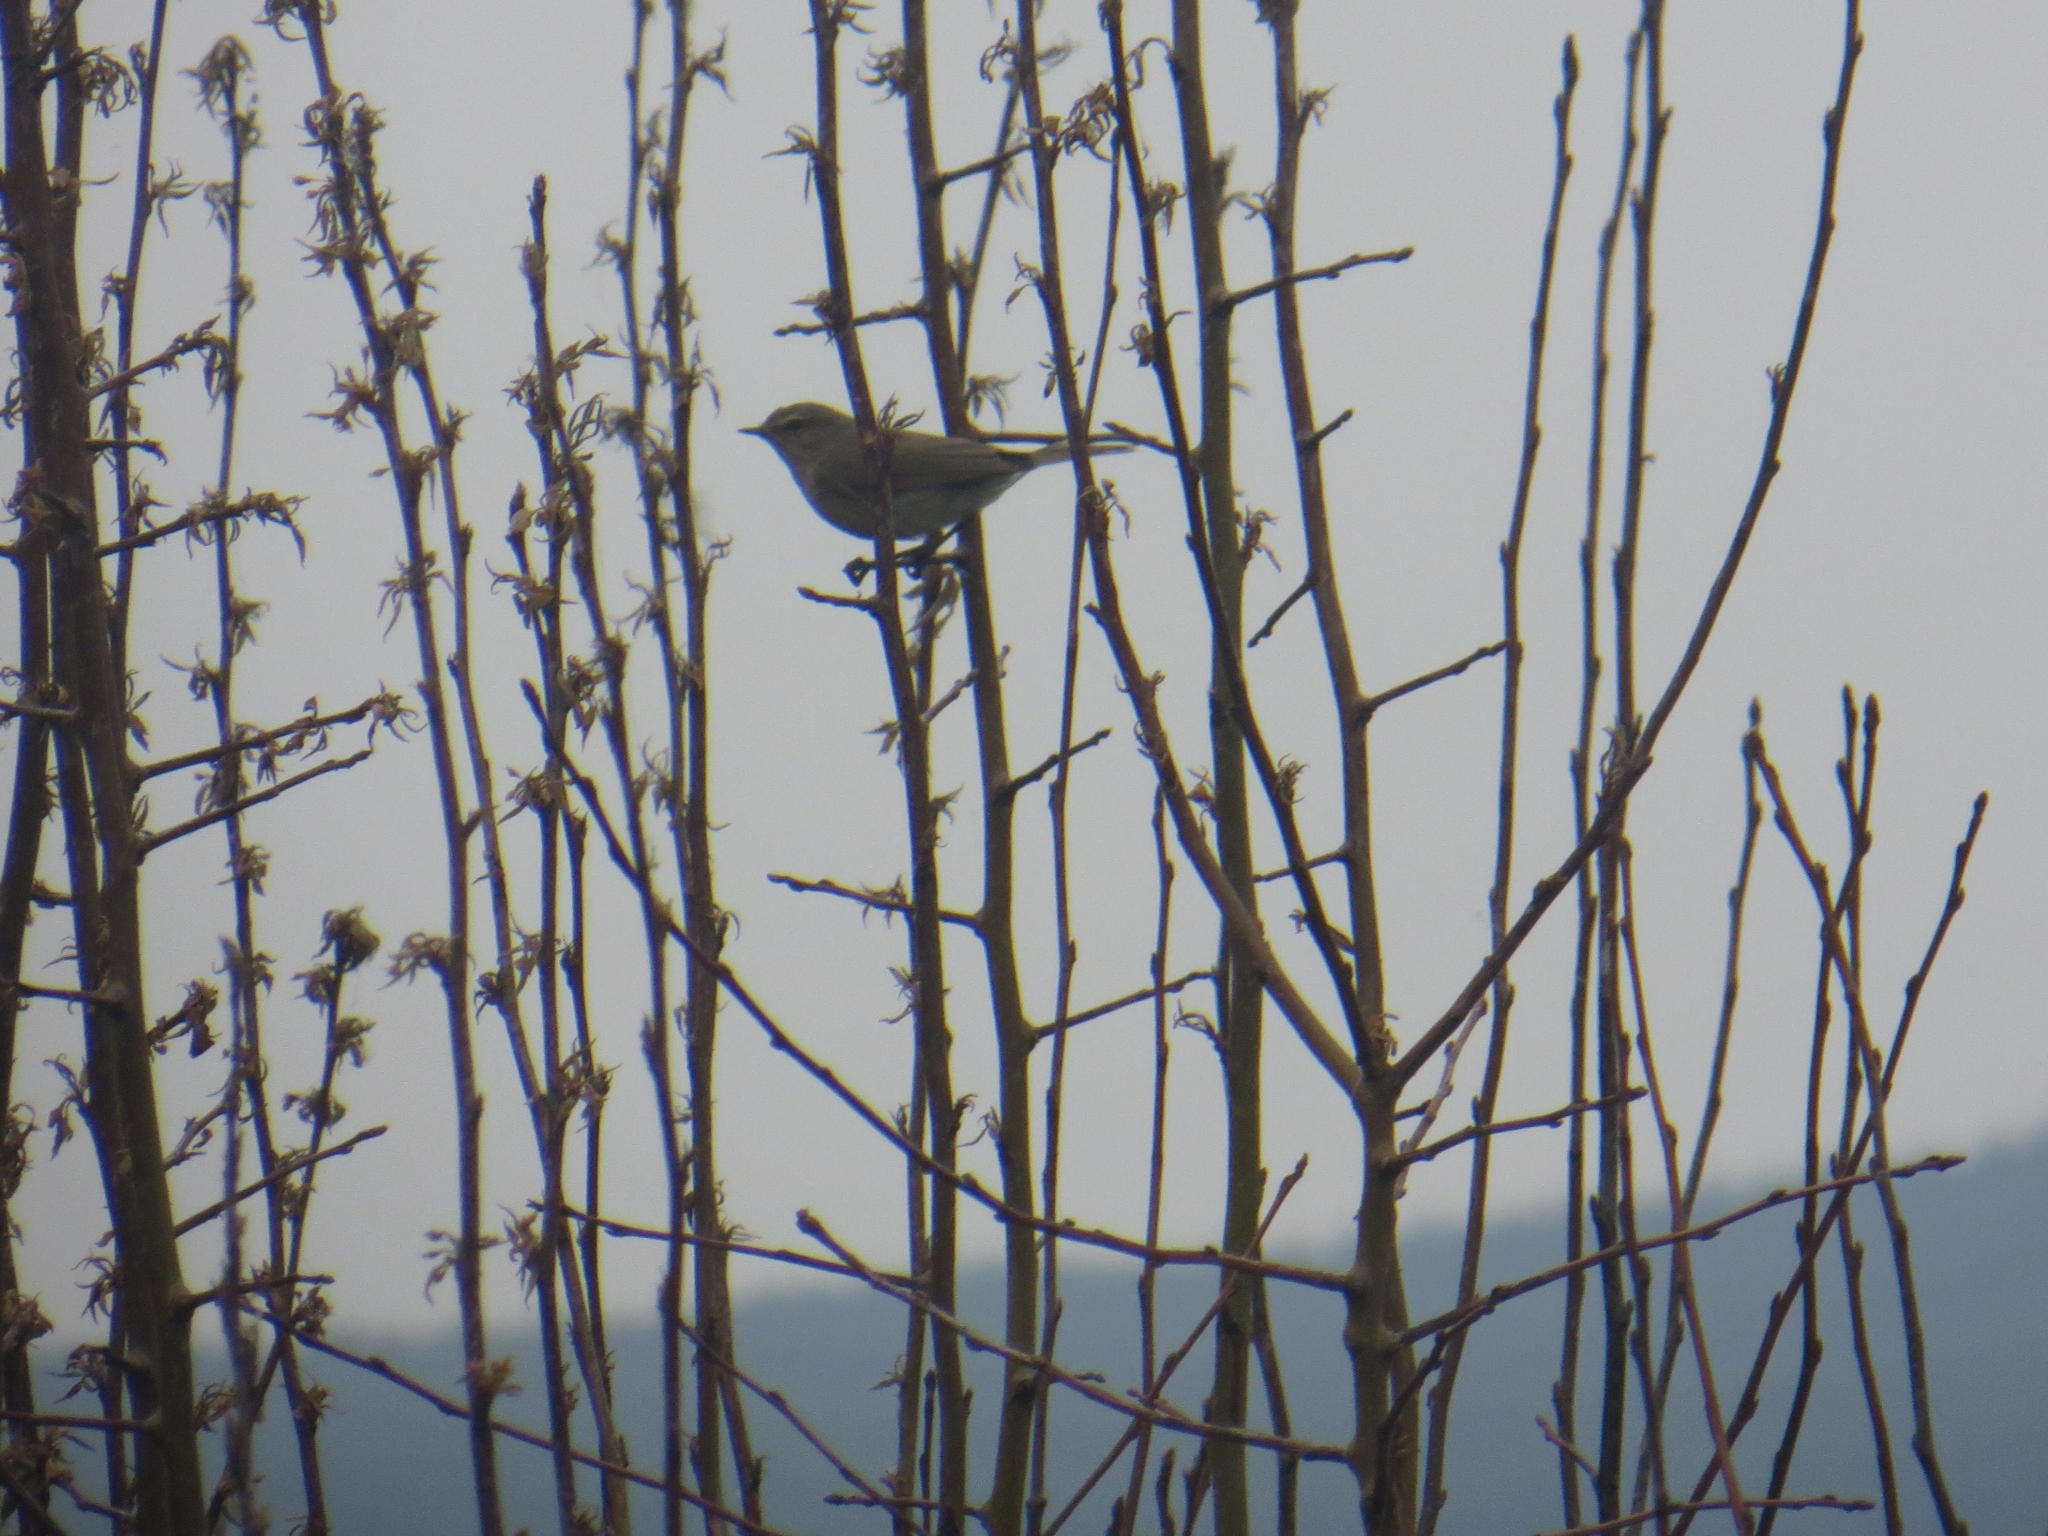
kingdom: Animalia
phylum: Chordata
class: Aves
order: Passeriformes
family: Phylloscopidae
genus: Phylloscopus
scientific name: Phylloscopus collybita
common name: Common chiffchaff
